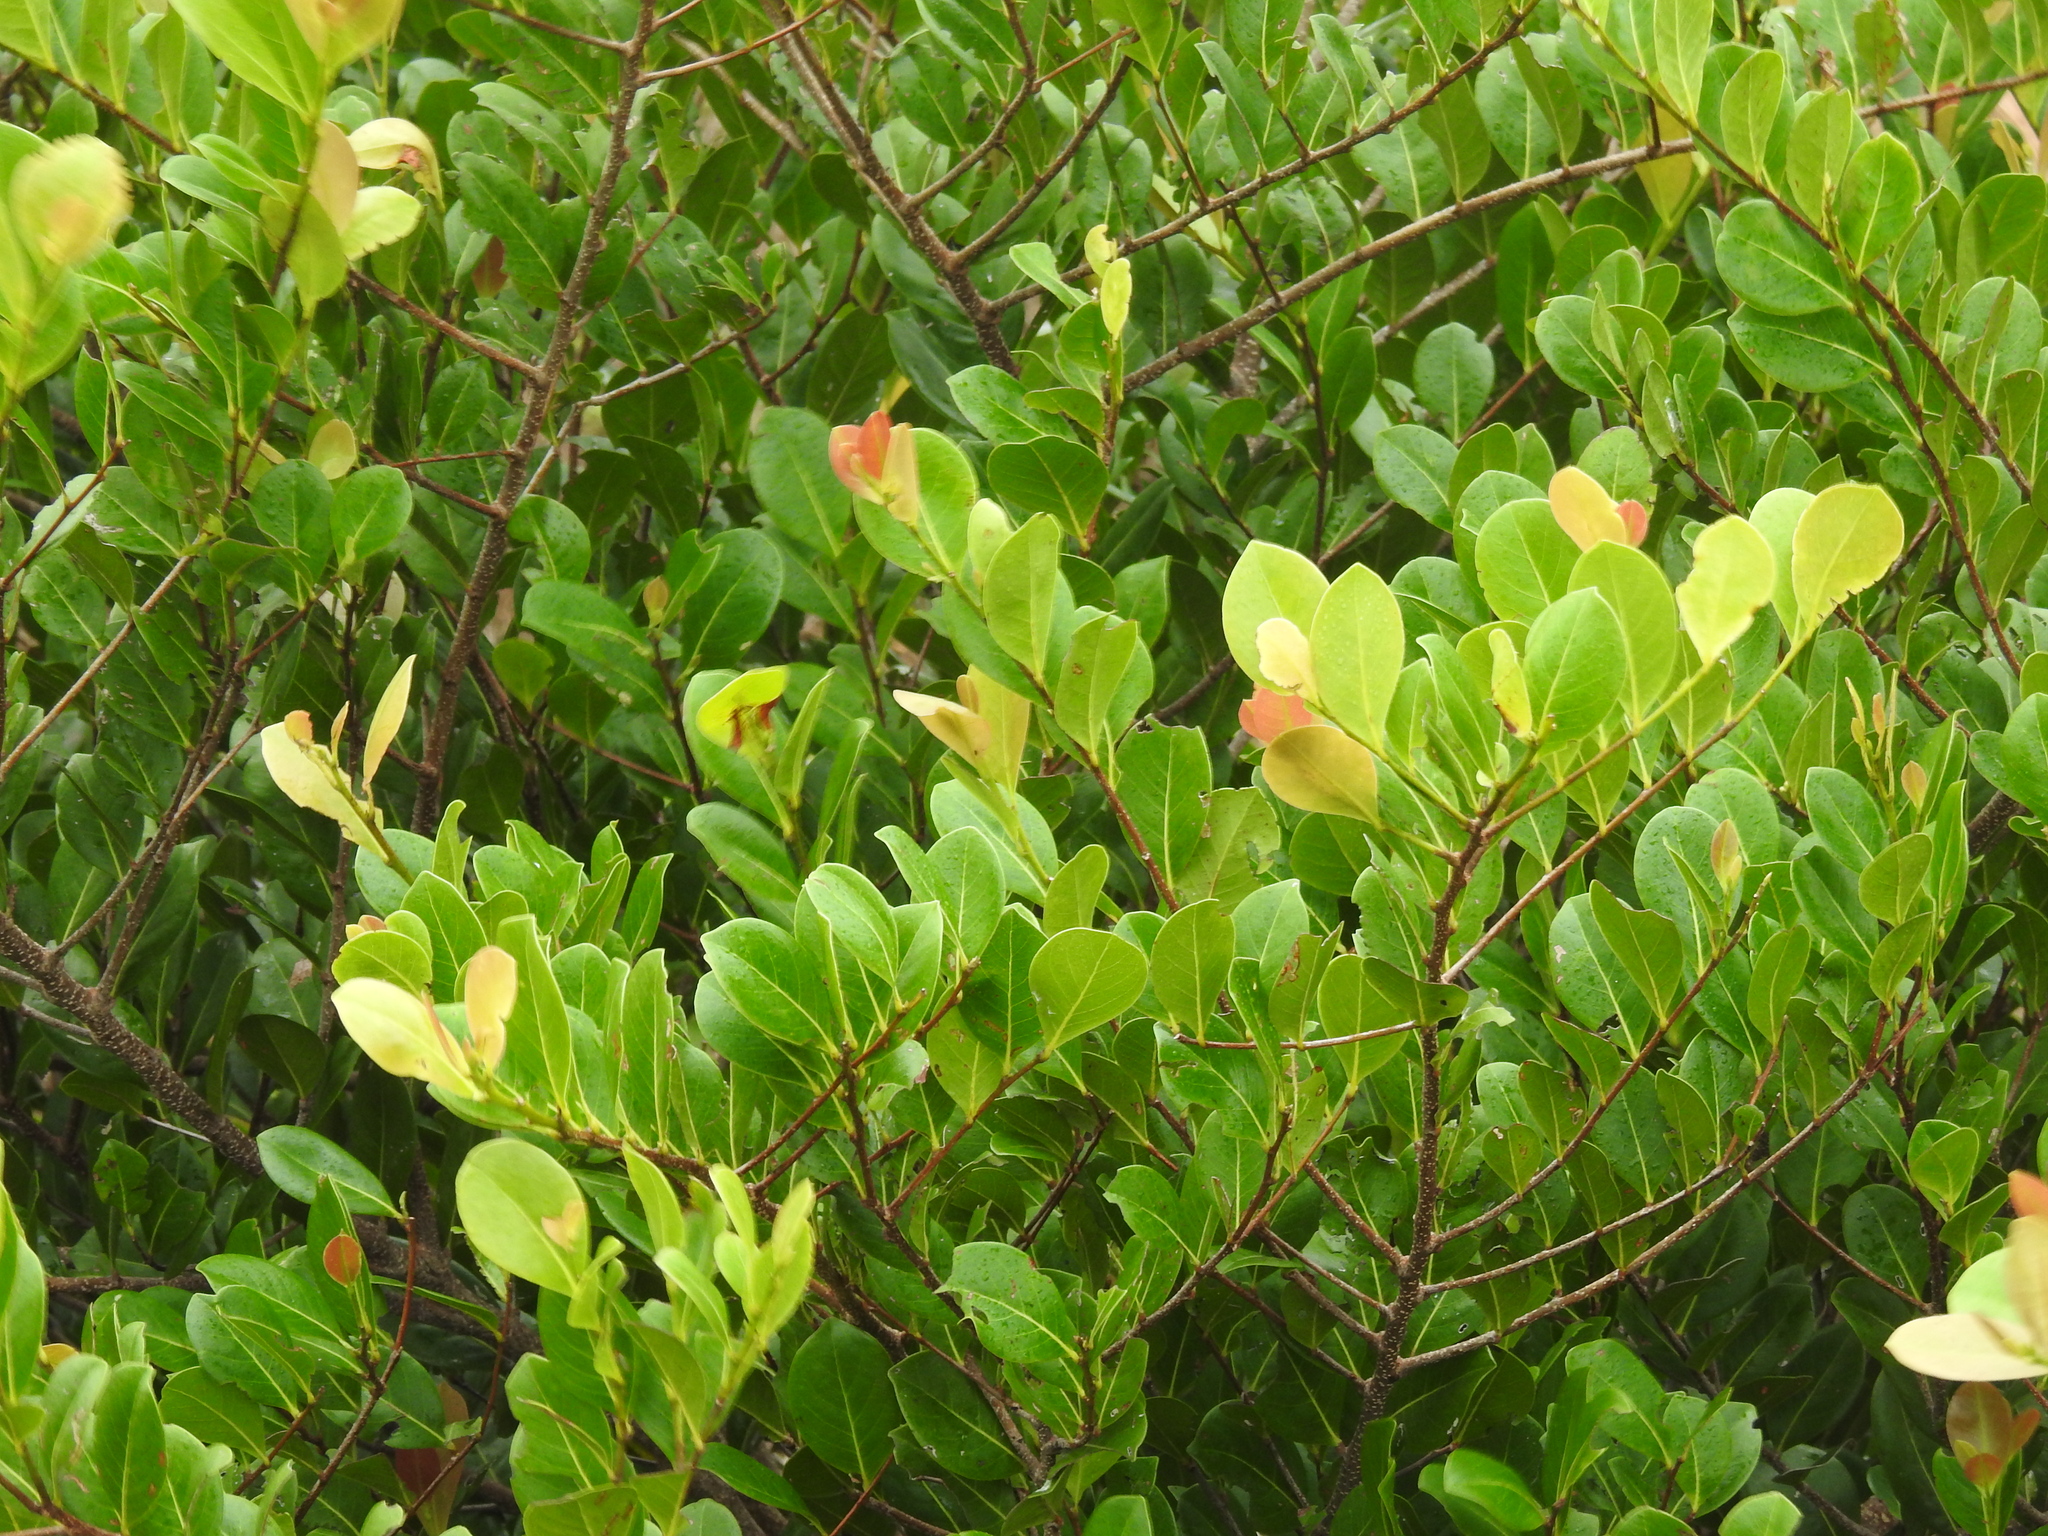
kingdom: Plantae
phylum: Tracheophyta
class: Magnoliopsida
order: Malpighiales
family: Chrysobalanaceae
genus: Chrysobalanus
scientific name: Chrysobalanus icaco
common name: Coco plum
